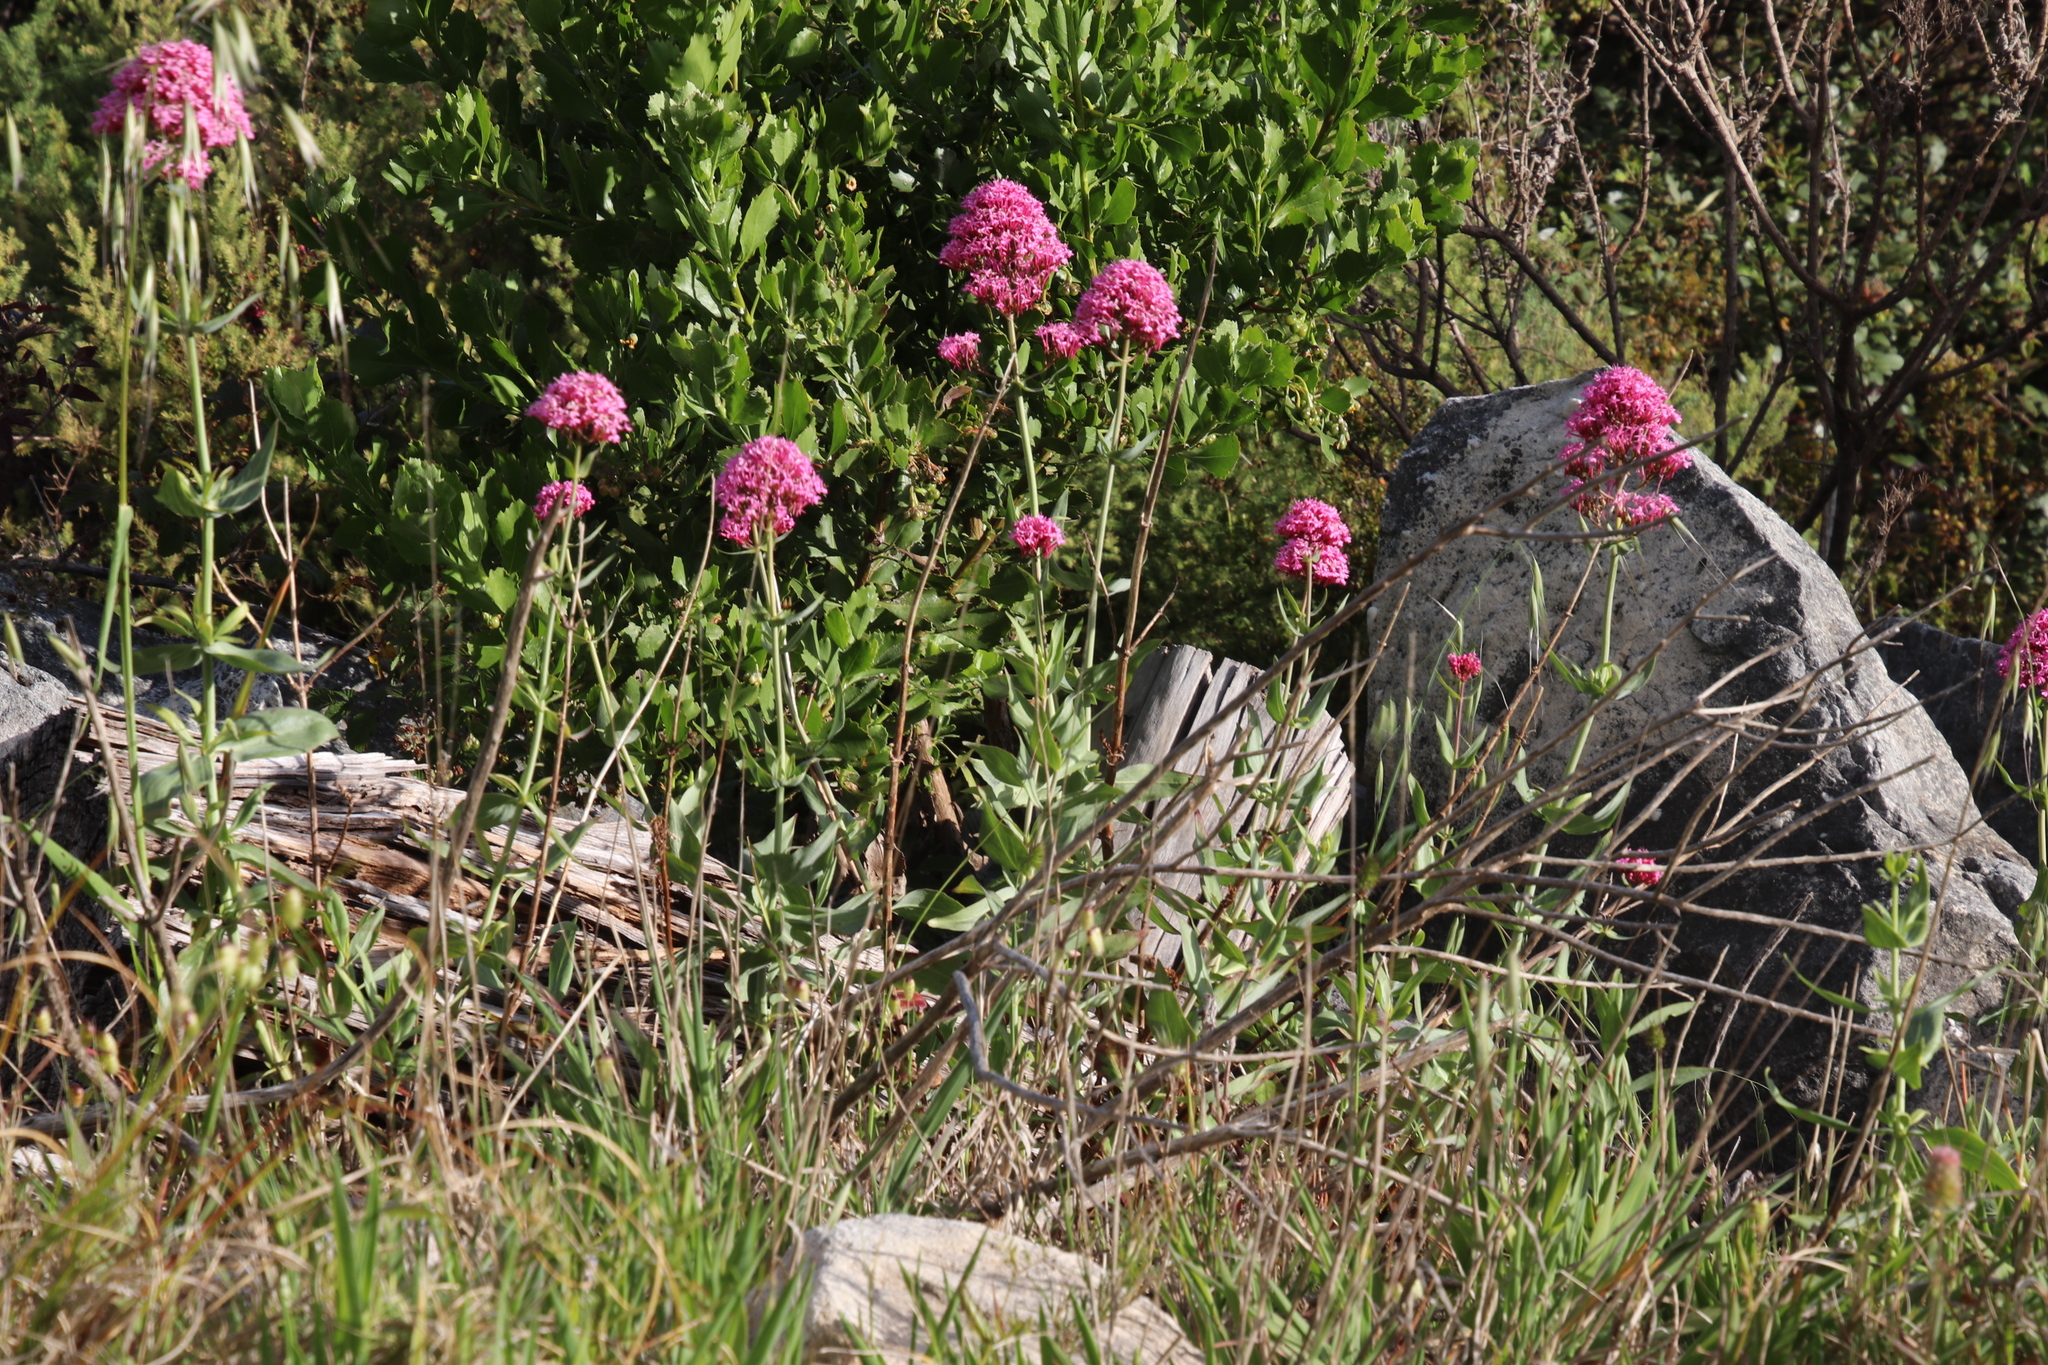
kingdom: Plantae
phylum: Tracheophyta
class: Magnoliopsida
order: Dipsacales
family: Caprifoliaceae
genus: Centranthus
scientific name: Centranthus ruber
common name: Red valerian
